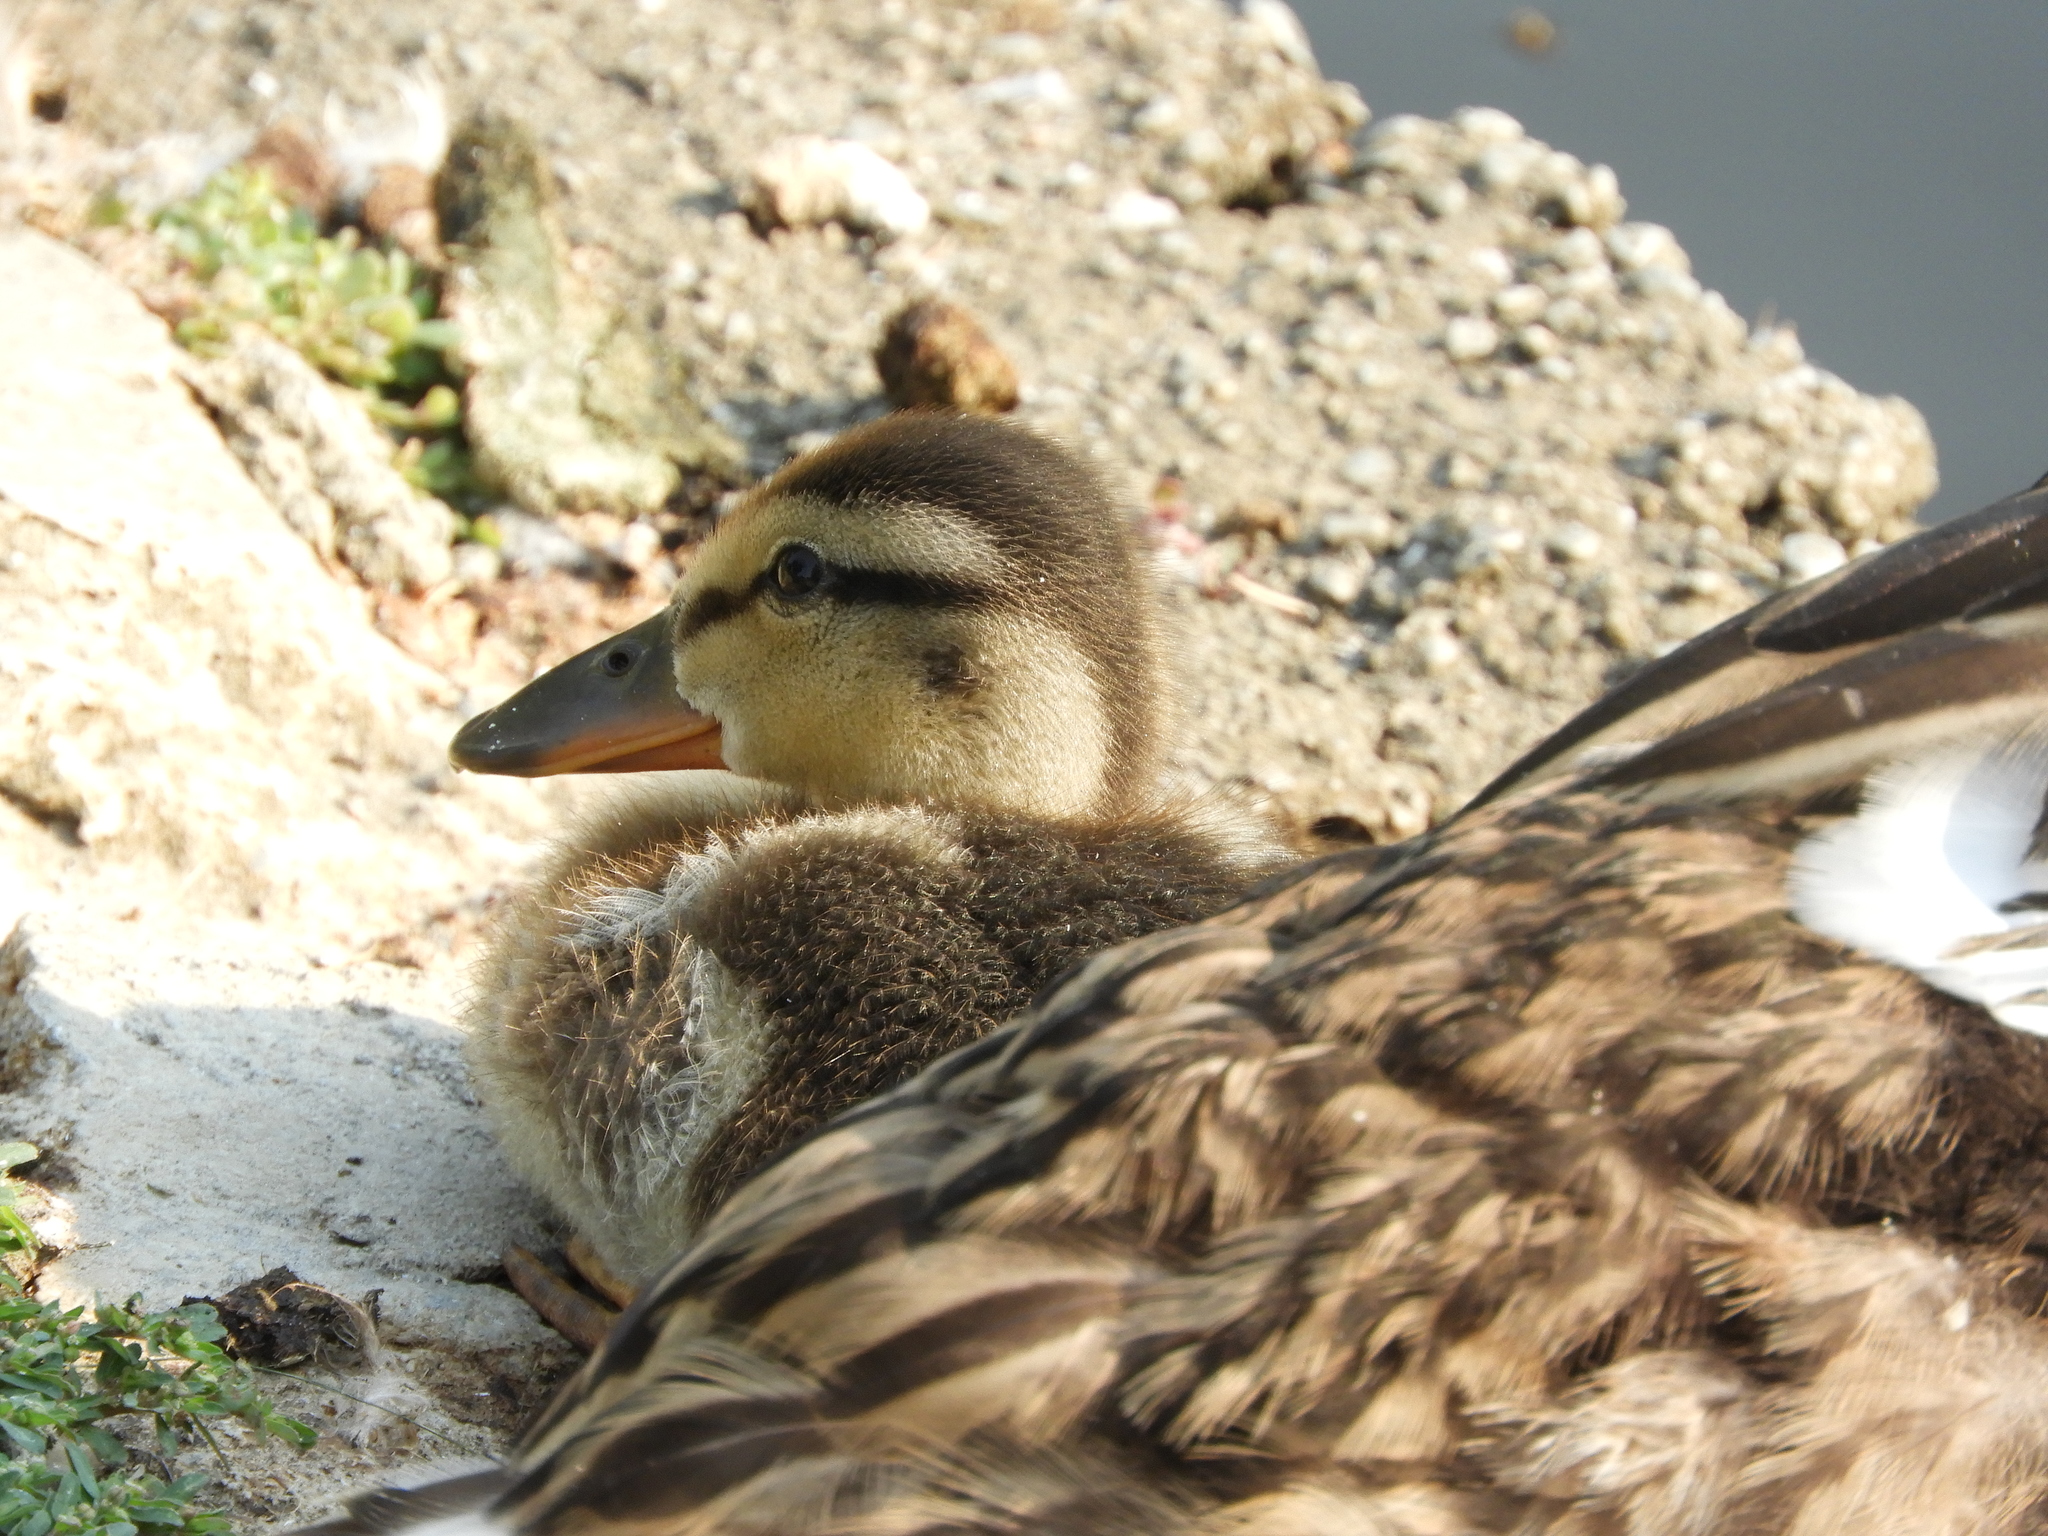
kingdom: Animalia
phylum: Chordata
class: Aves
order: Anseriformes
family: Anatidae
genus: Anas
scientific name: Anas platyrhynchos
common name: Mallard
